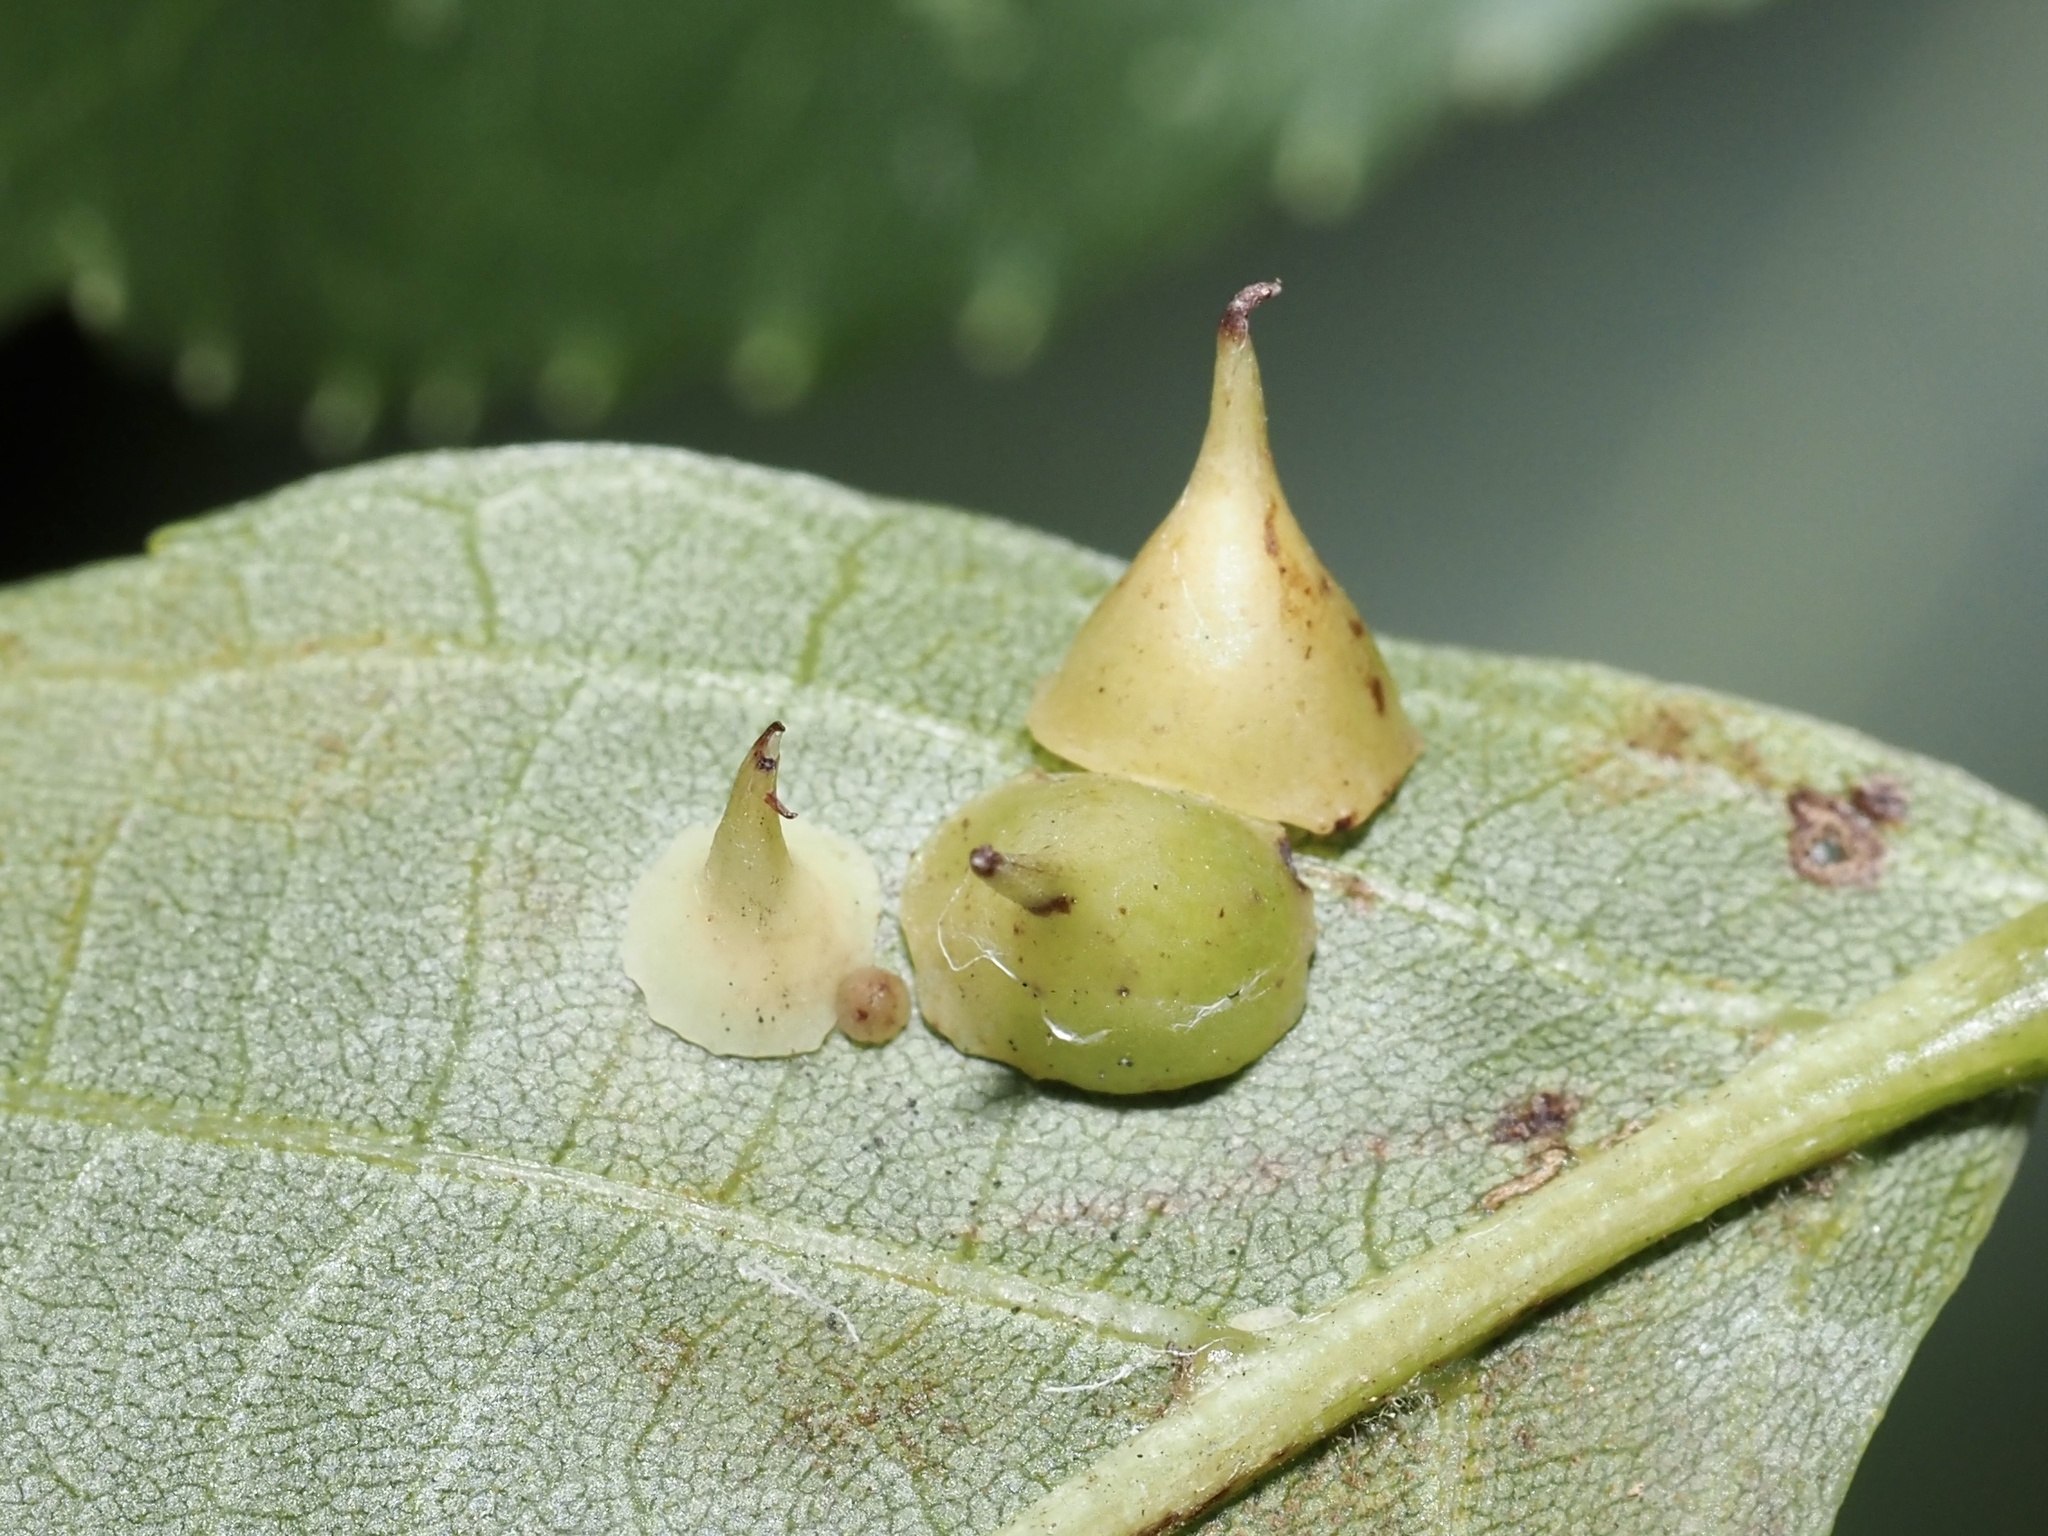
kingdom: Animalia
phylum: Arthropoda
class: Insecta
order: Diptera
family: Cecidomyiidae
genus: Caryomyia
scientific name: Caryomyia sanguinolenta
